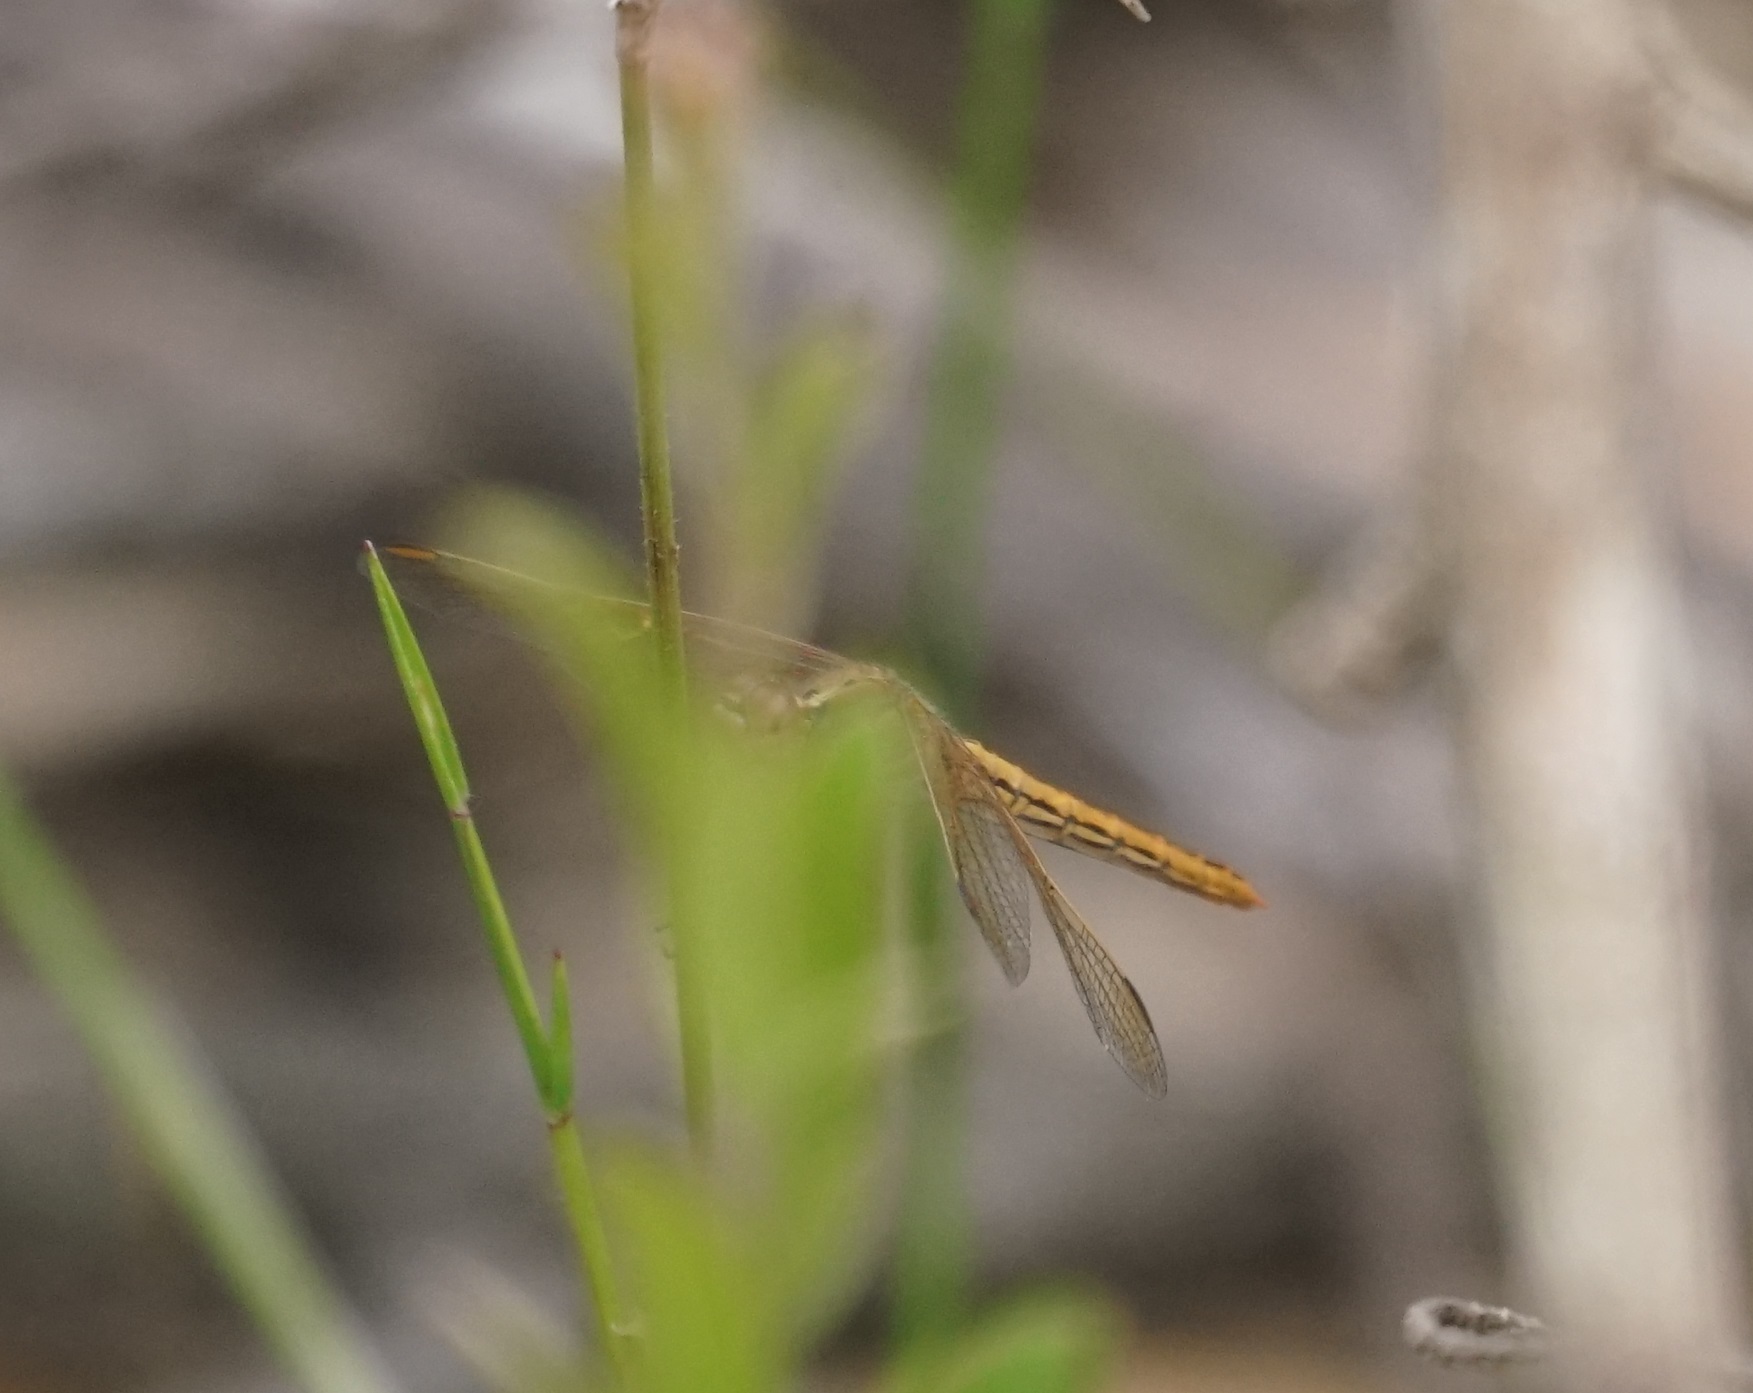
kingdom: Animalia
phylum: Arthropoda
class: Insecta
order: Odonata
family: Libellulidae
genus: Diplacodes
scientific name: Diplacodes haematodes
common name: Scarlet percher
